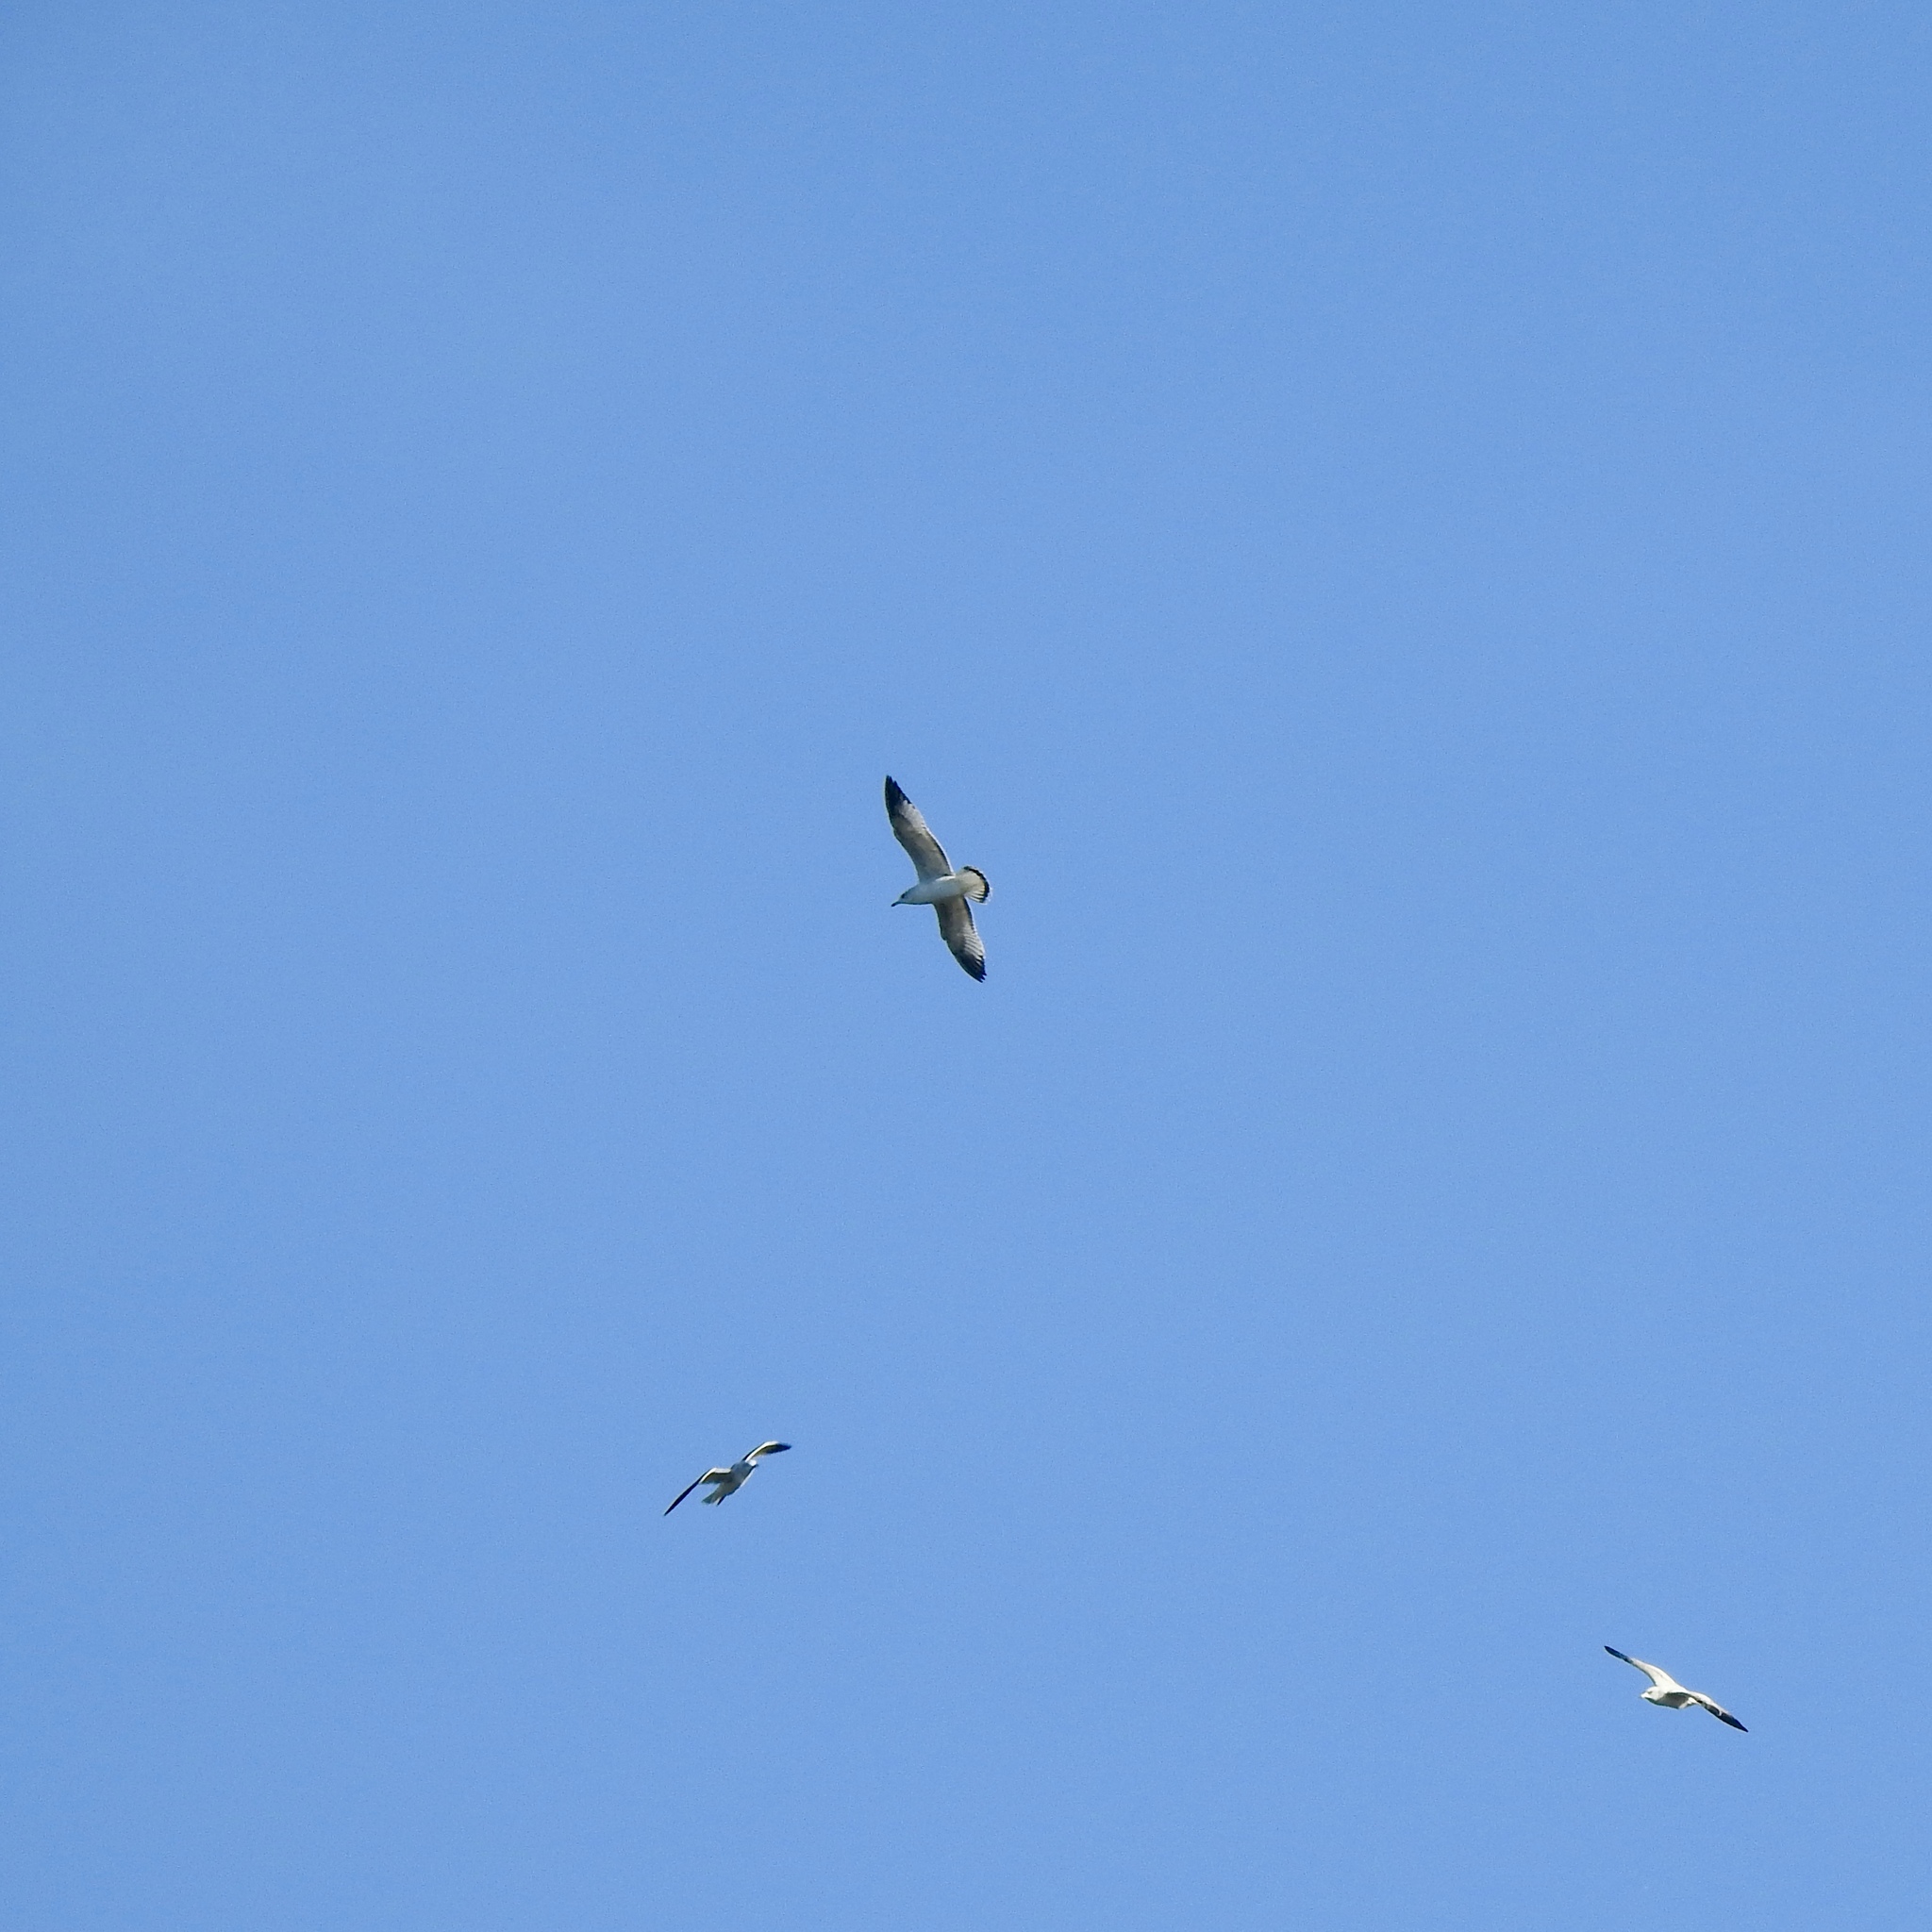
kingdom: Animalia
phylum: Chordata
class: Aves
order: Charadriiformes
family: Laridae
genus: Larus
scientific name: Larus delawarensis
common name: Ring-billed gull
